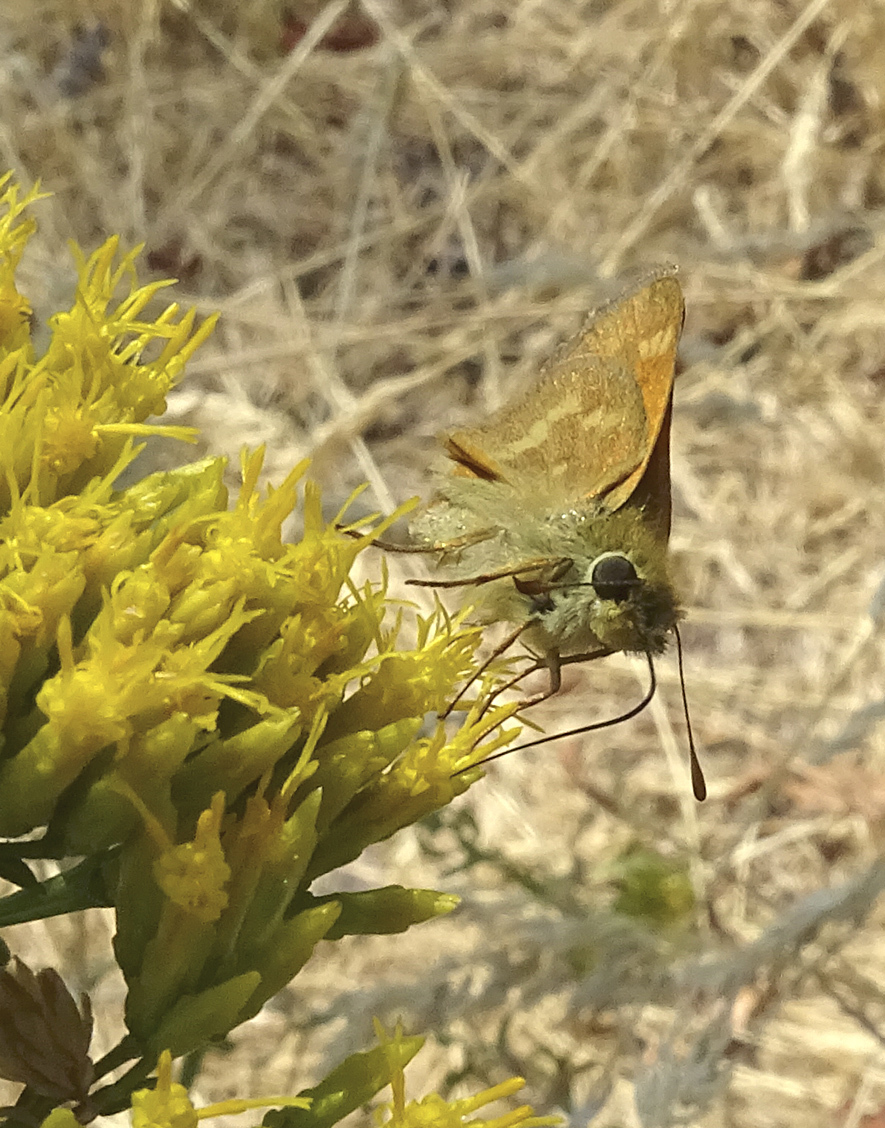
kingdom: Animalia
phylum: Arthropoda
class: Insecta
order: Lepidoptera
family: Hesperiidae
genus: Ochlodes
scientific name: Ochlodes sylvanoides
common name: Woodland skipper
